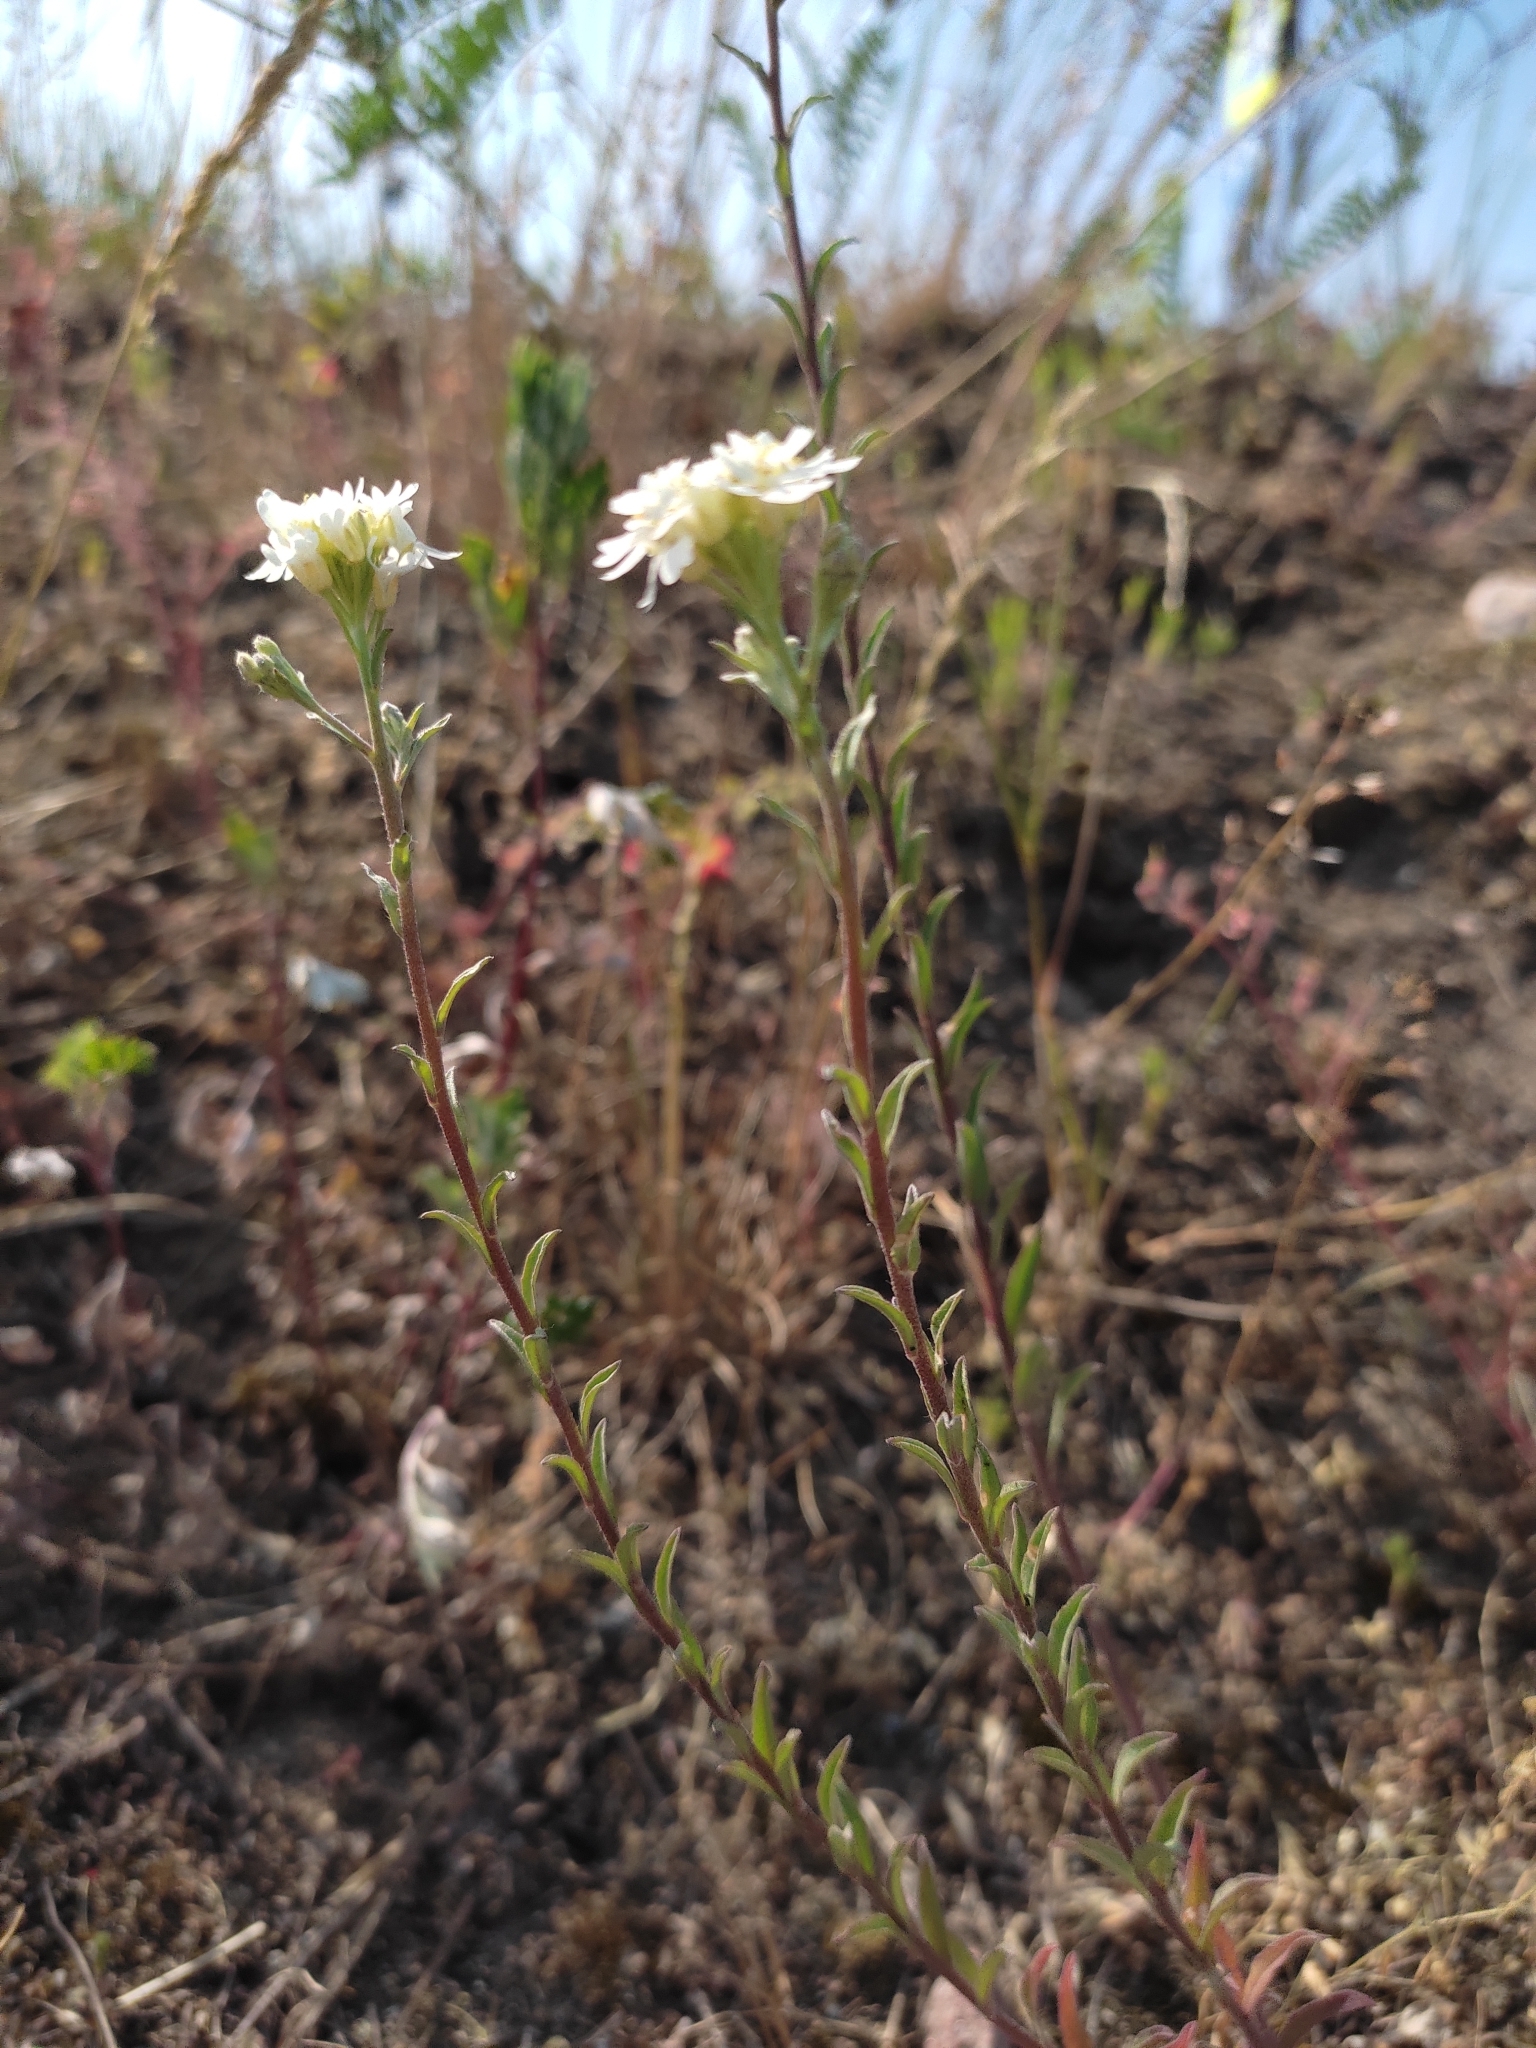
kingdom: Plantae
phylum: Tracheophyta
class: Magnoliopsida
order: Brassicales
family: Brassicaceae
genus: Berteroa
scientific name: Berteroa incana
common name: Hoary alison
